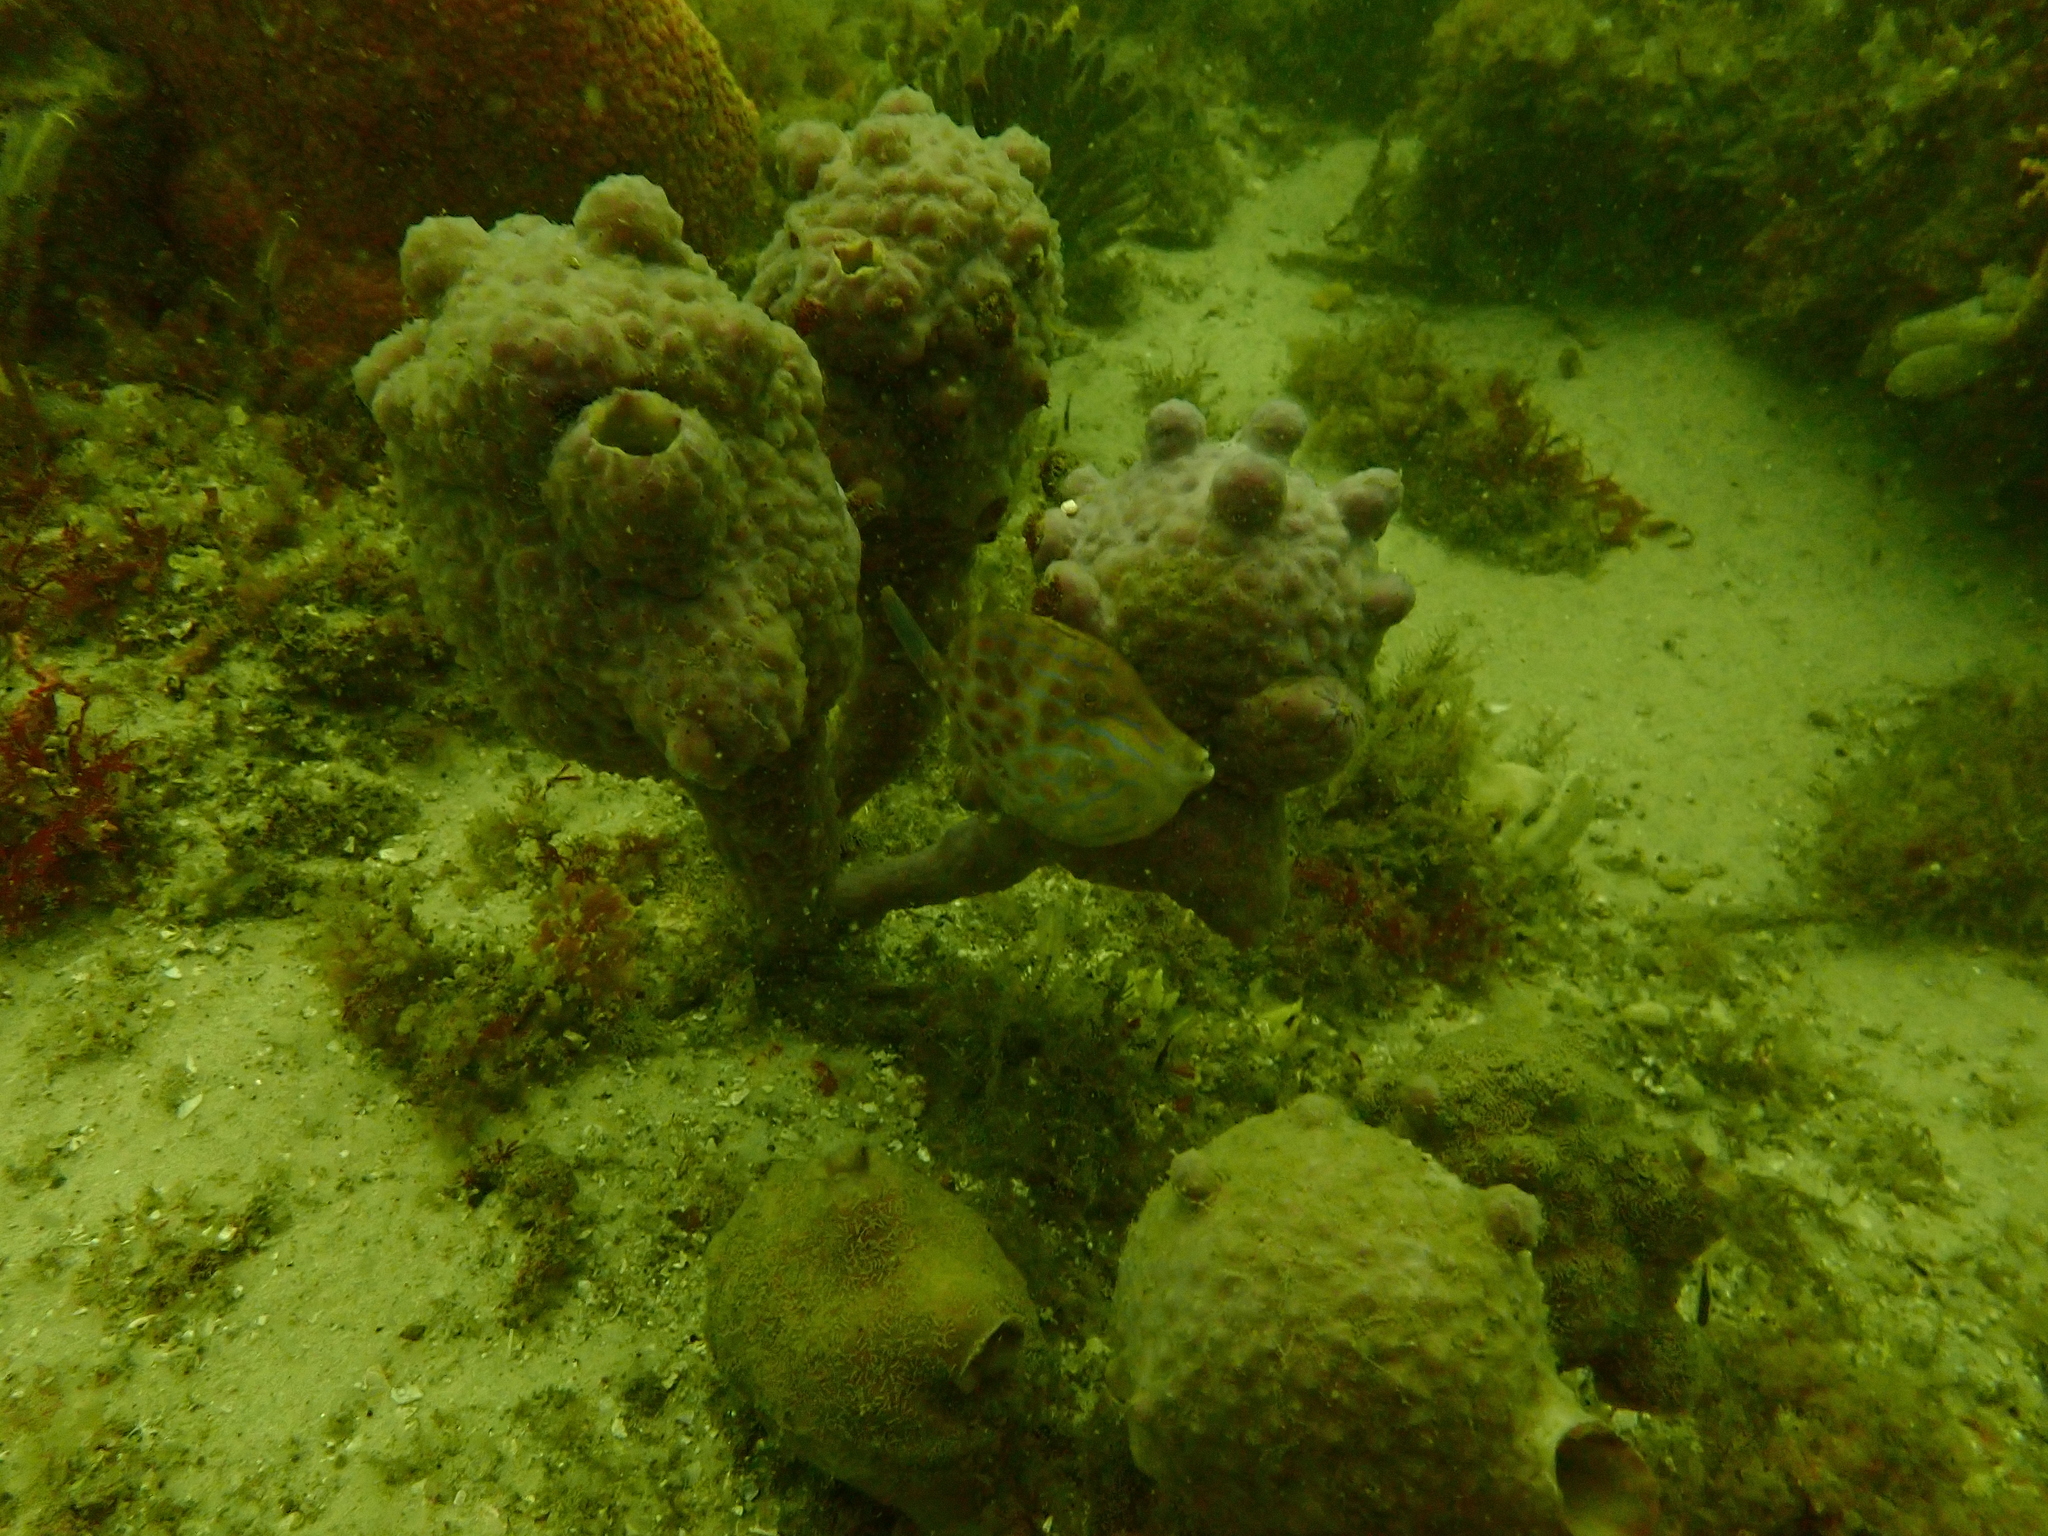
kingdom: Animalia
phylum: Chordata
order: Tetraodontiformes
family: Monacanthidae
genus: Eubalichthys
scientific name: Eubalichthys mosaicus
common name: Mosaic leatherjacket
